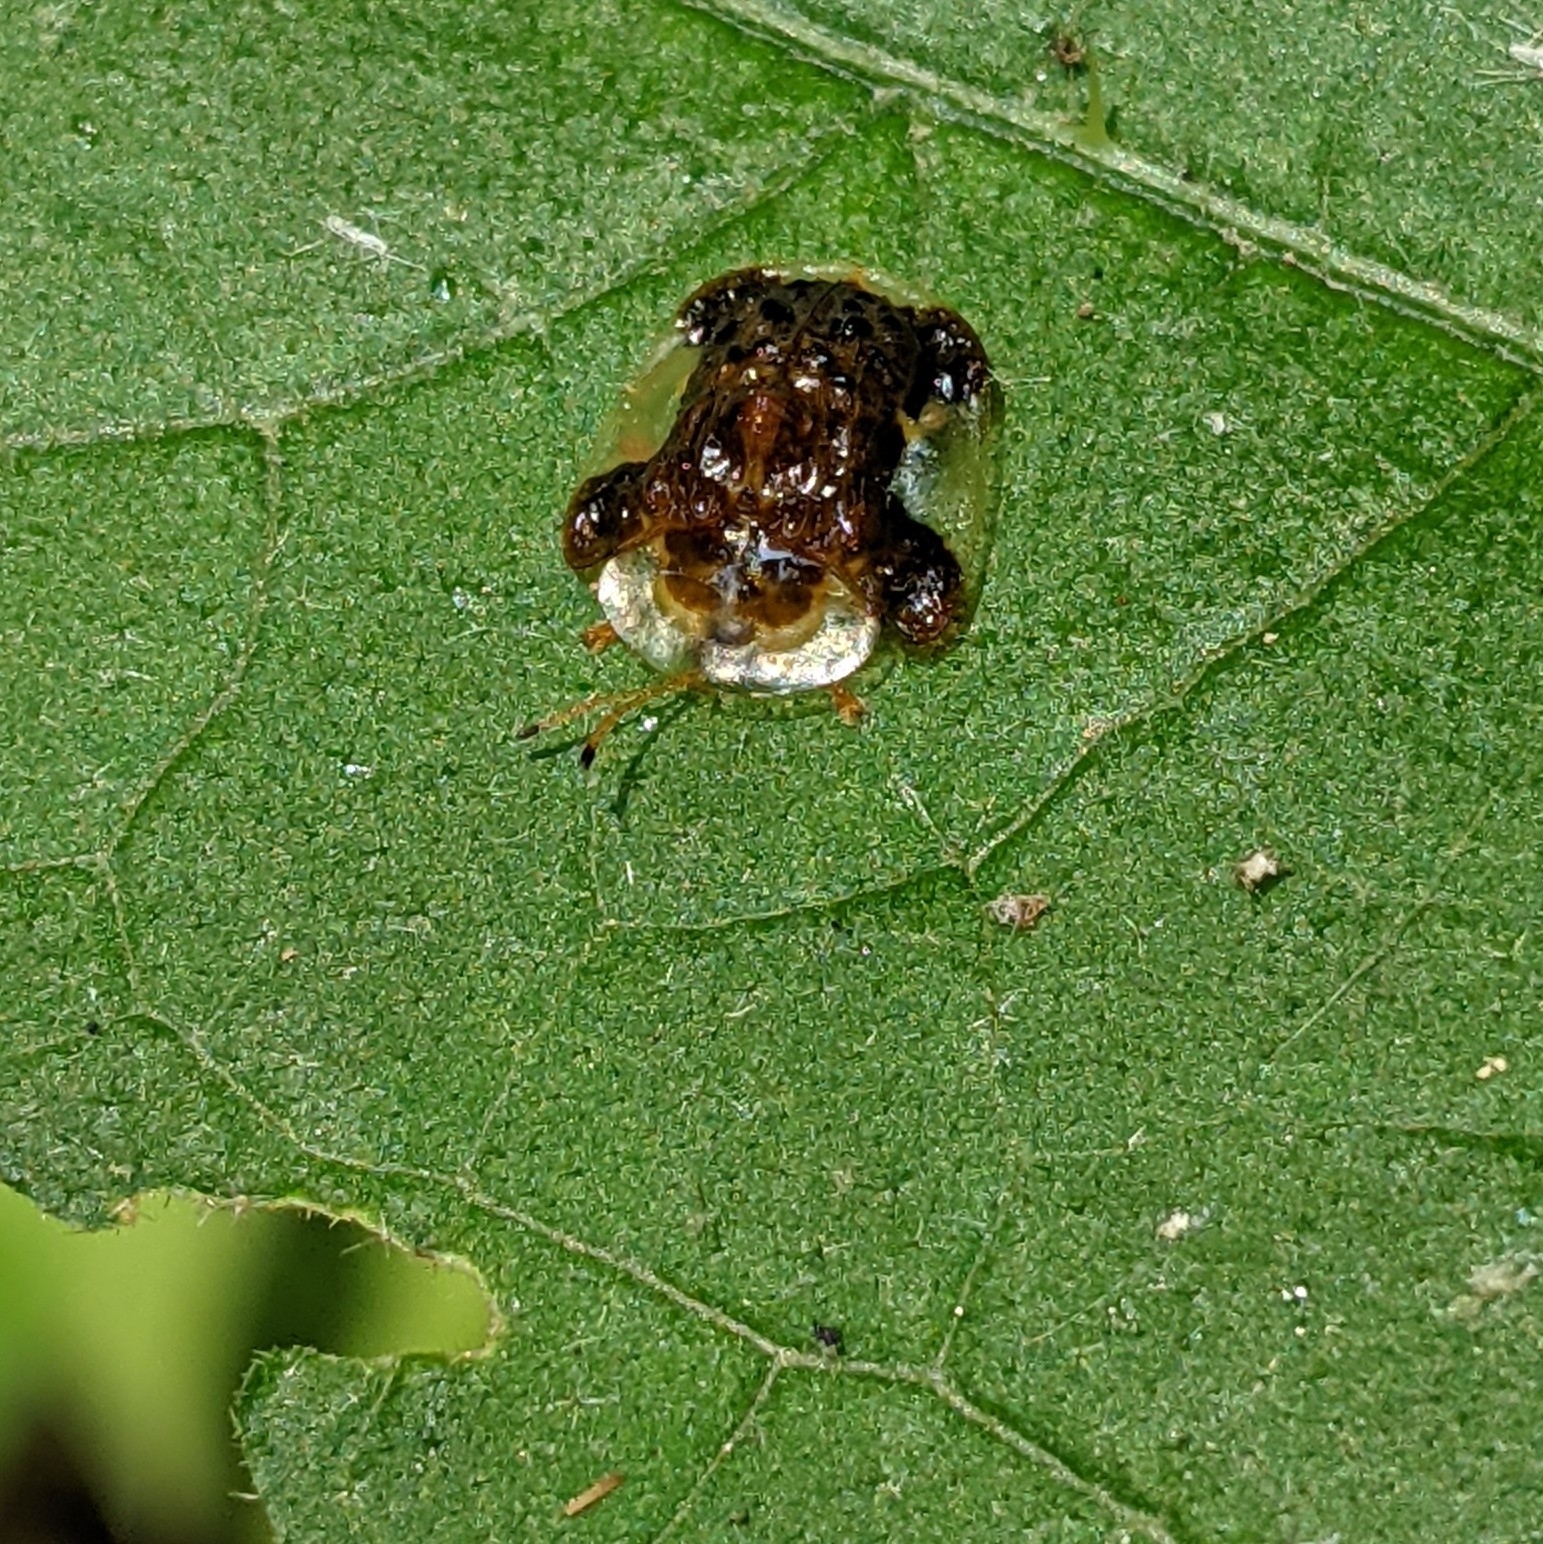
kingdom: Animalia
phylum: Arthropoda
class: Insecta
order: Coleoptera
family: Chrysomelidae
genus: Helocassis
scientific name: Helocassis clavata
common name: Clavate tortoise beetle
